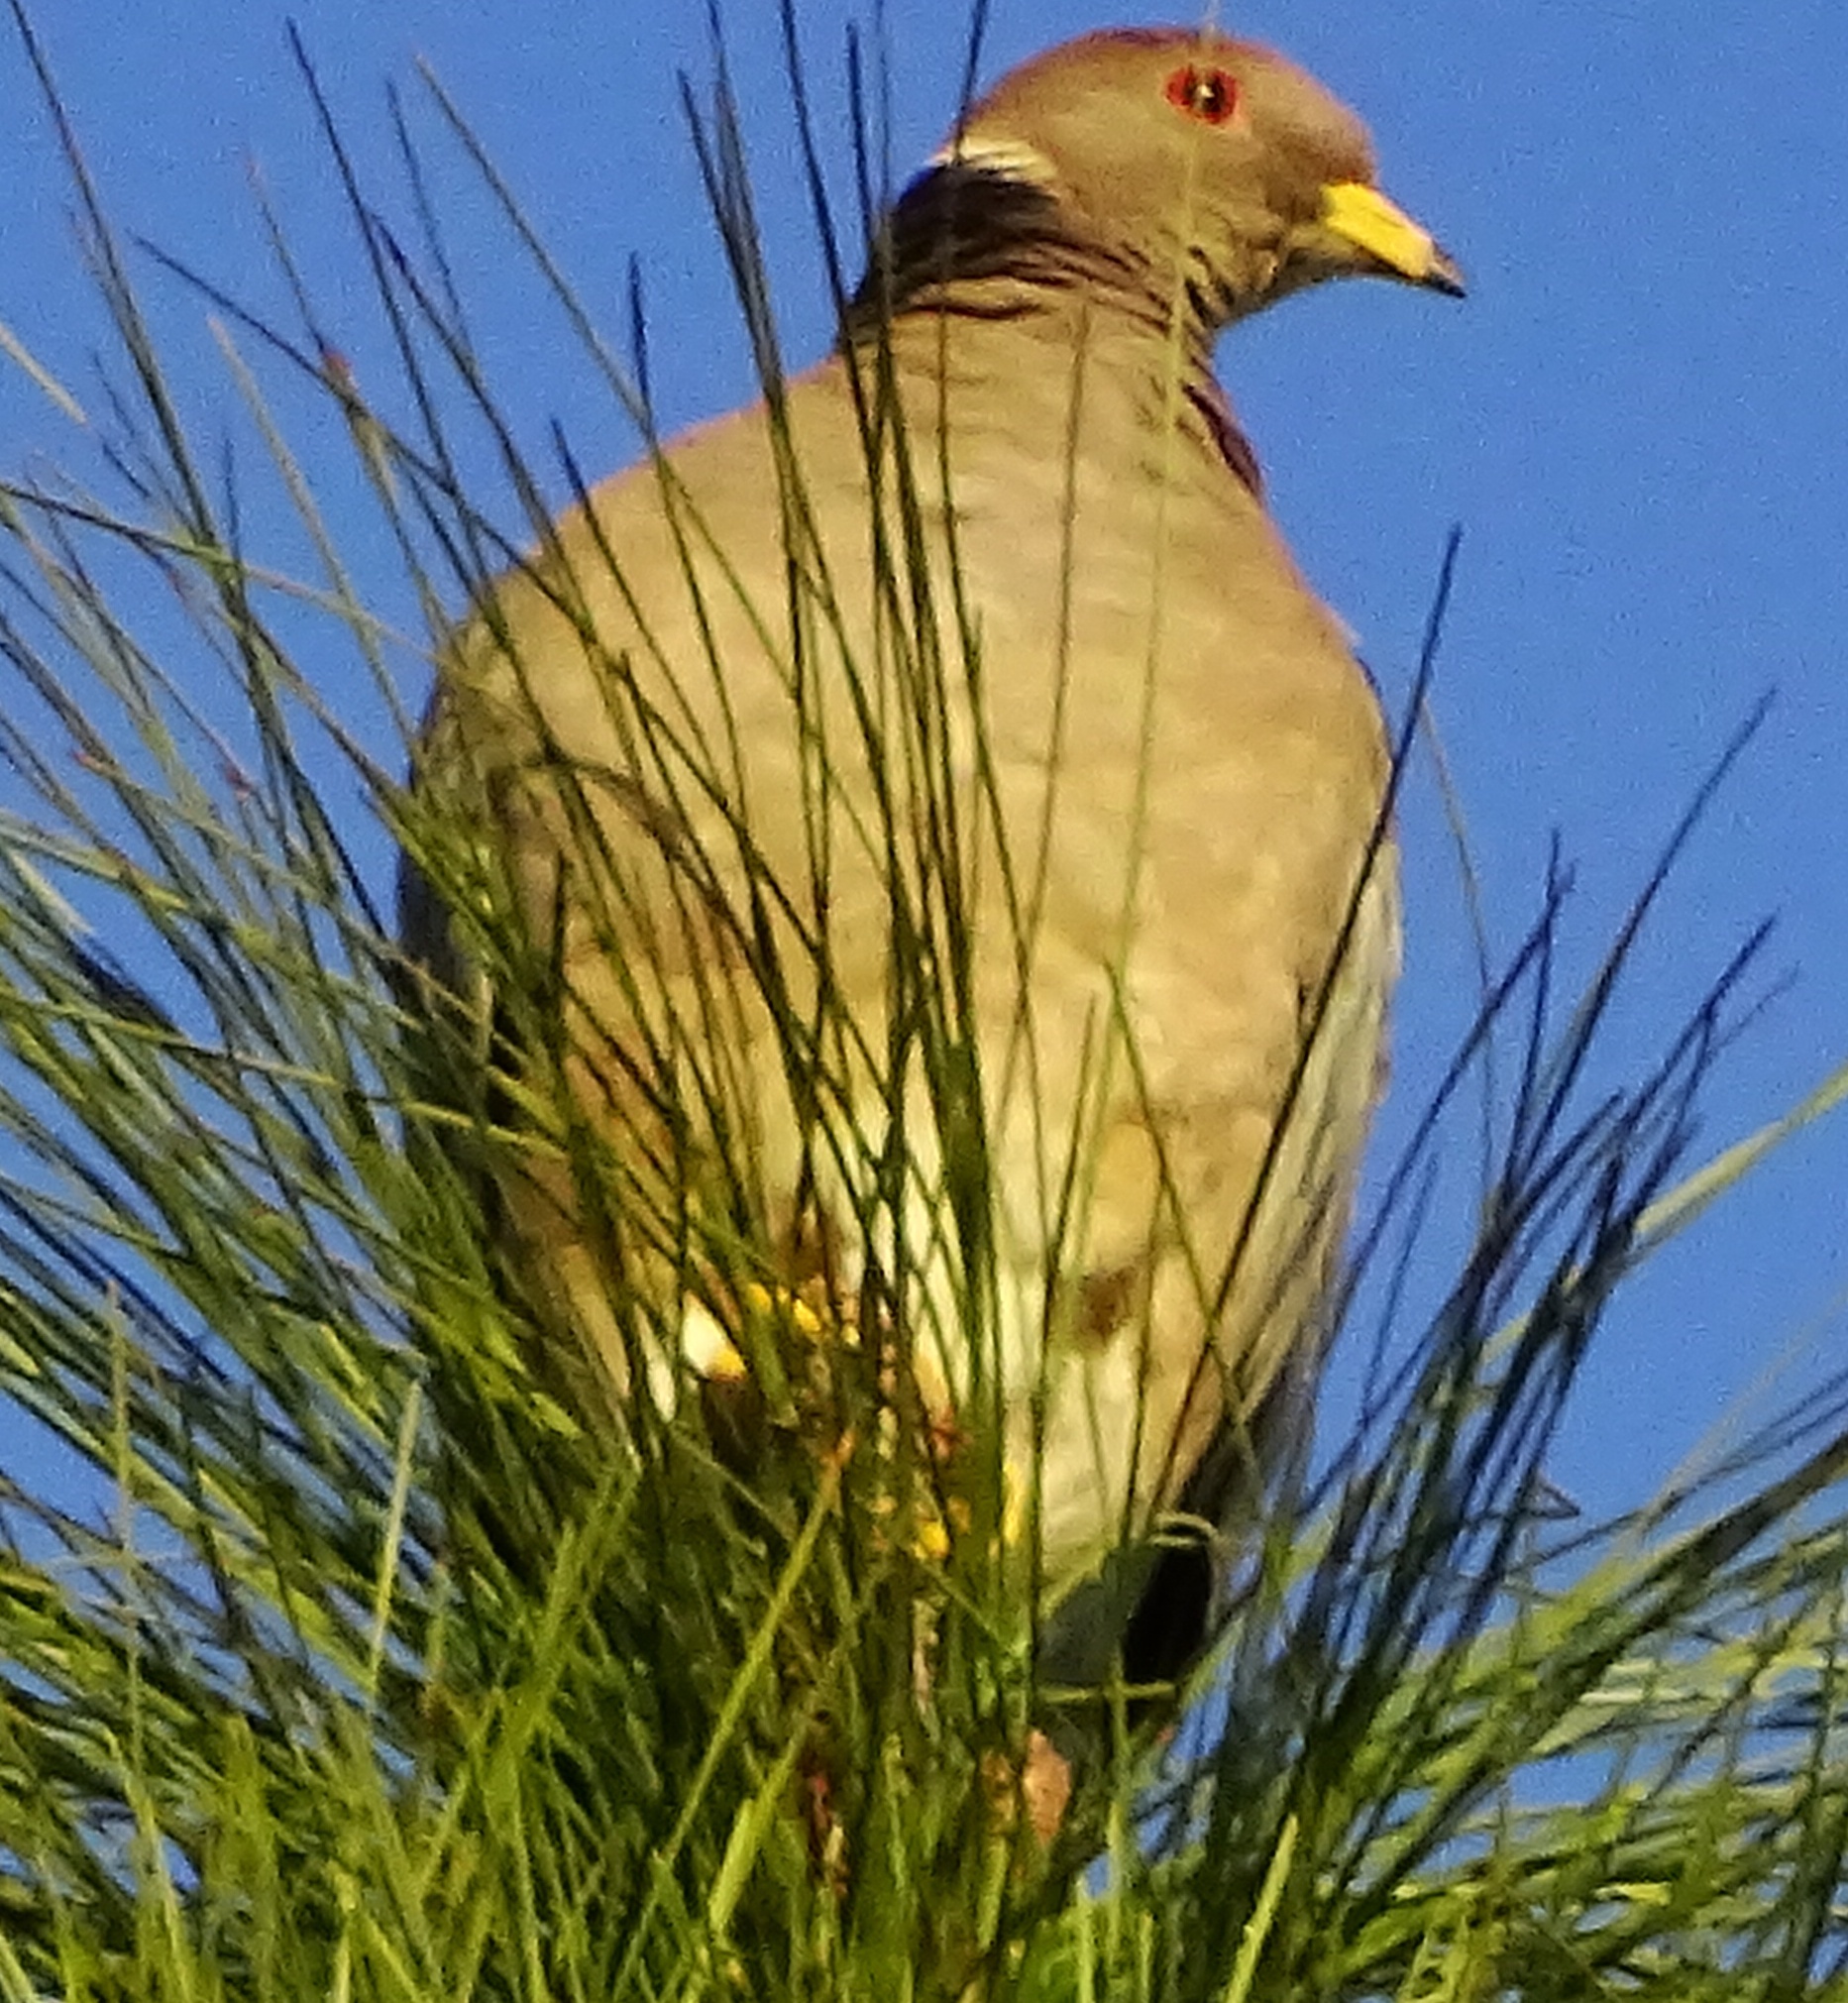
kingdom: Animalia
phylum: Chordata
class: Aves
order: Columbiformes
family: Columbidae
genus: Patagioenas
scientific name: Patagioenas fasciata
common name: Band-tailed pigeon
